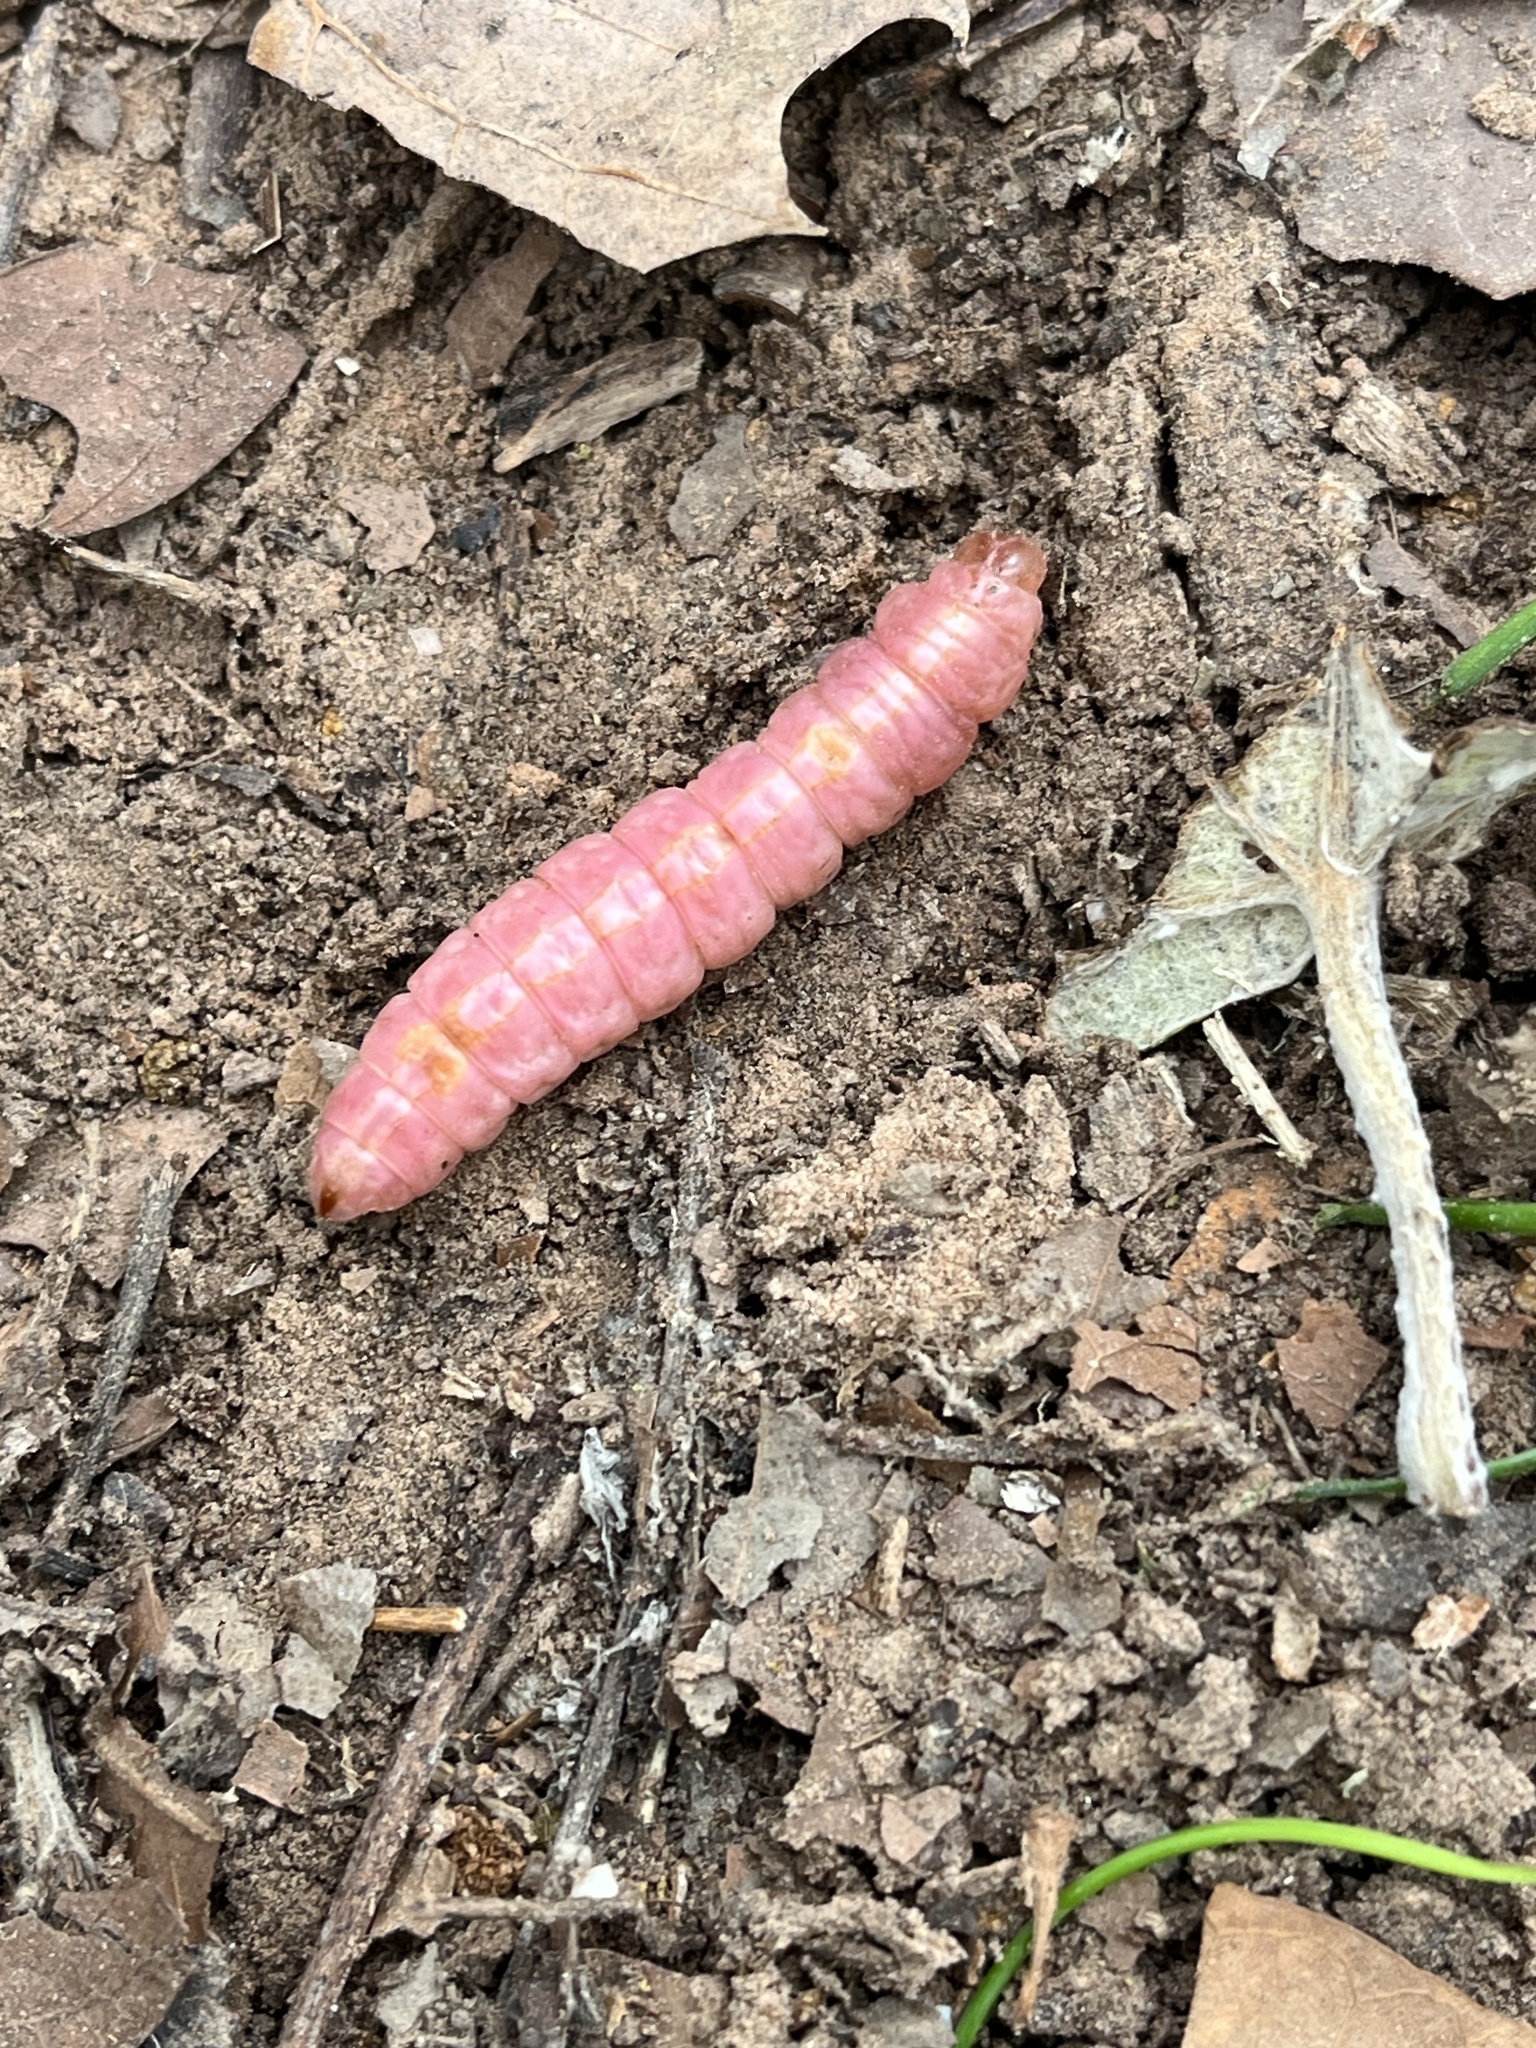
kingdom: Animalia
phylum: Arthropoda
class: Insecta
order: Lepidoptera
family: Notodontidae
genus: Misogada
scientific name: Misogada unicolor
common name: Drab prominent
